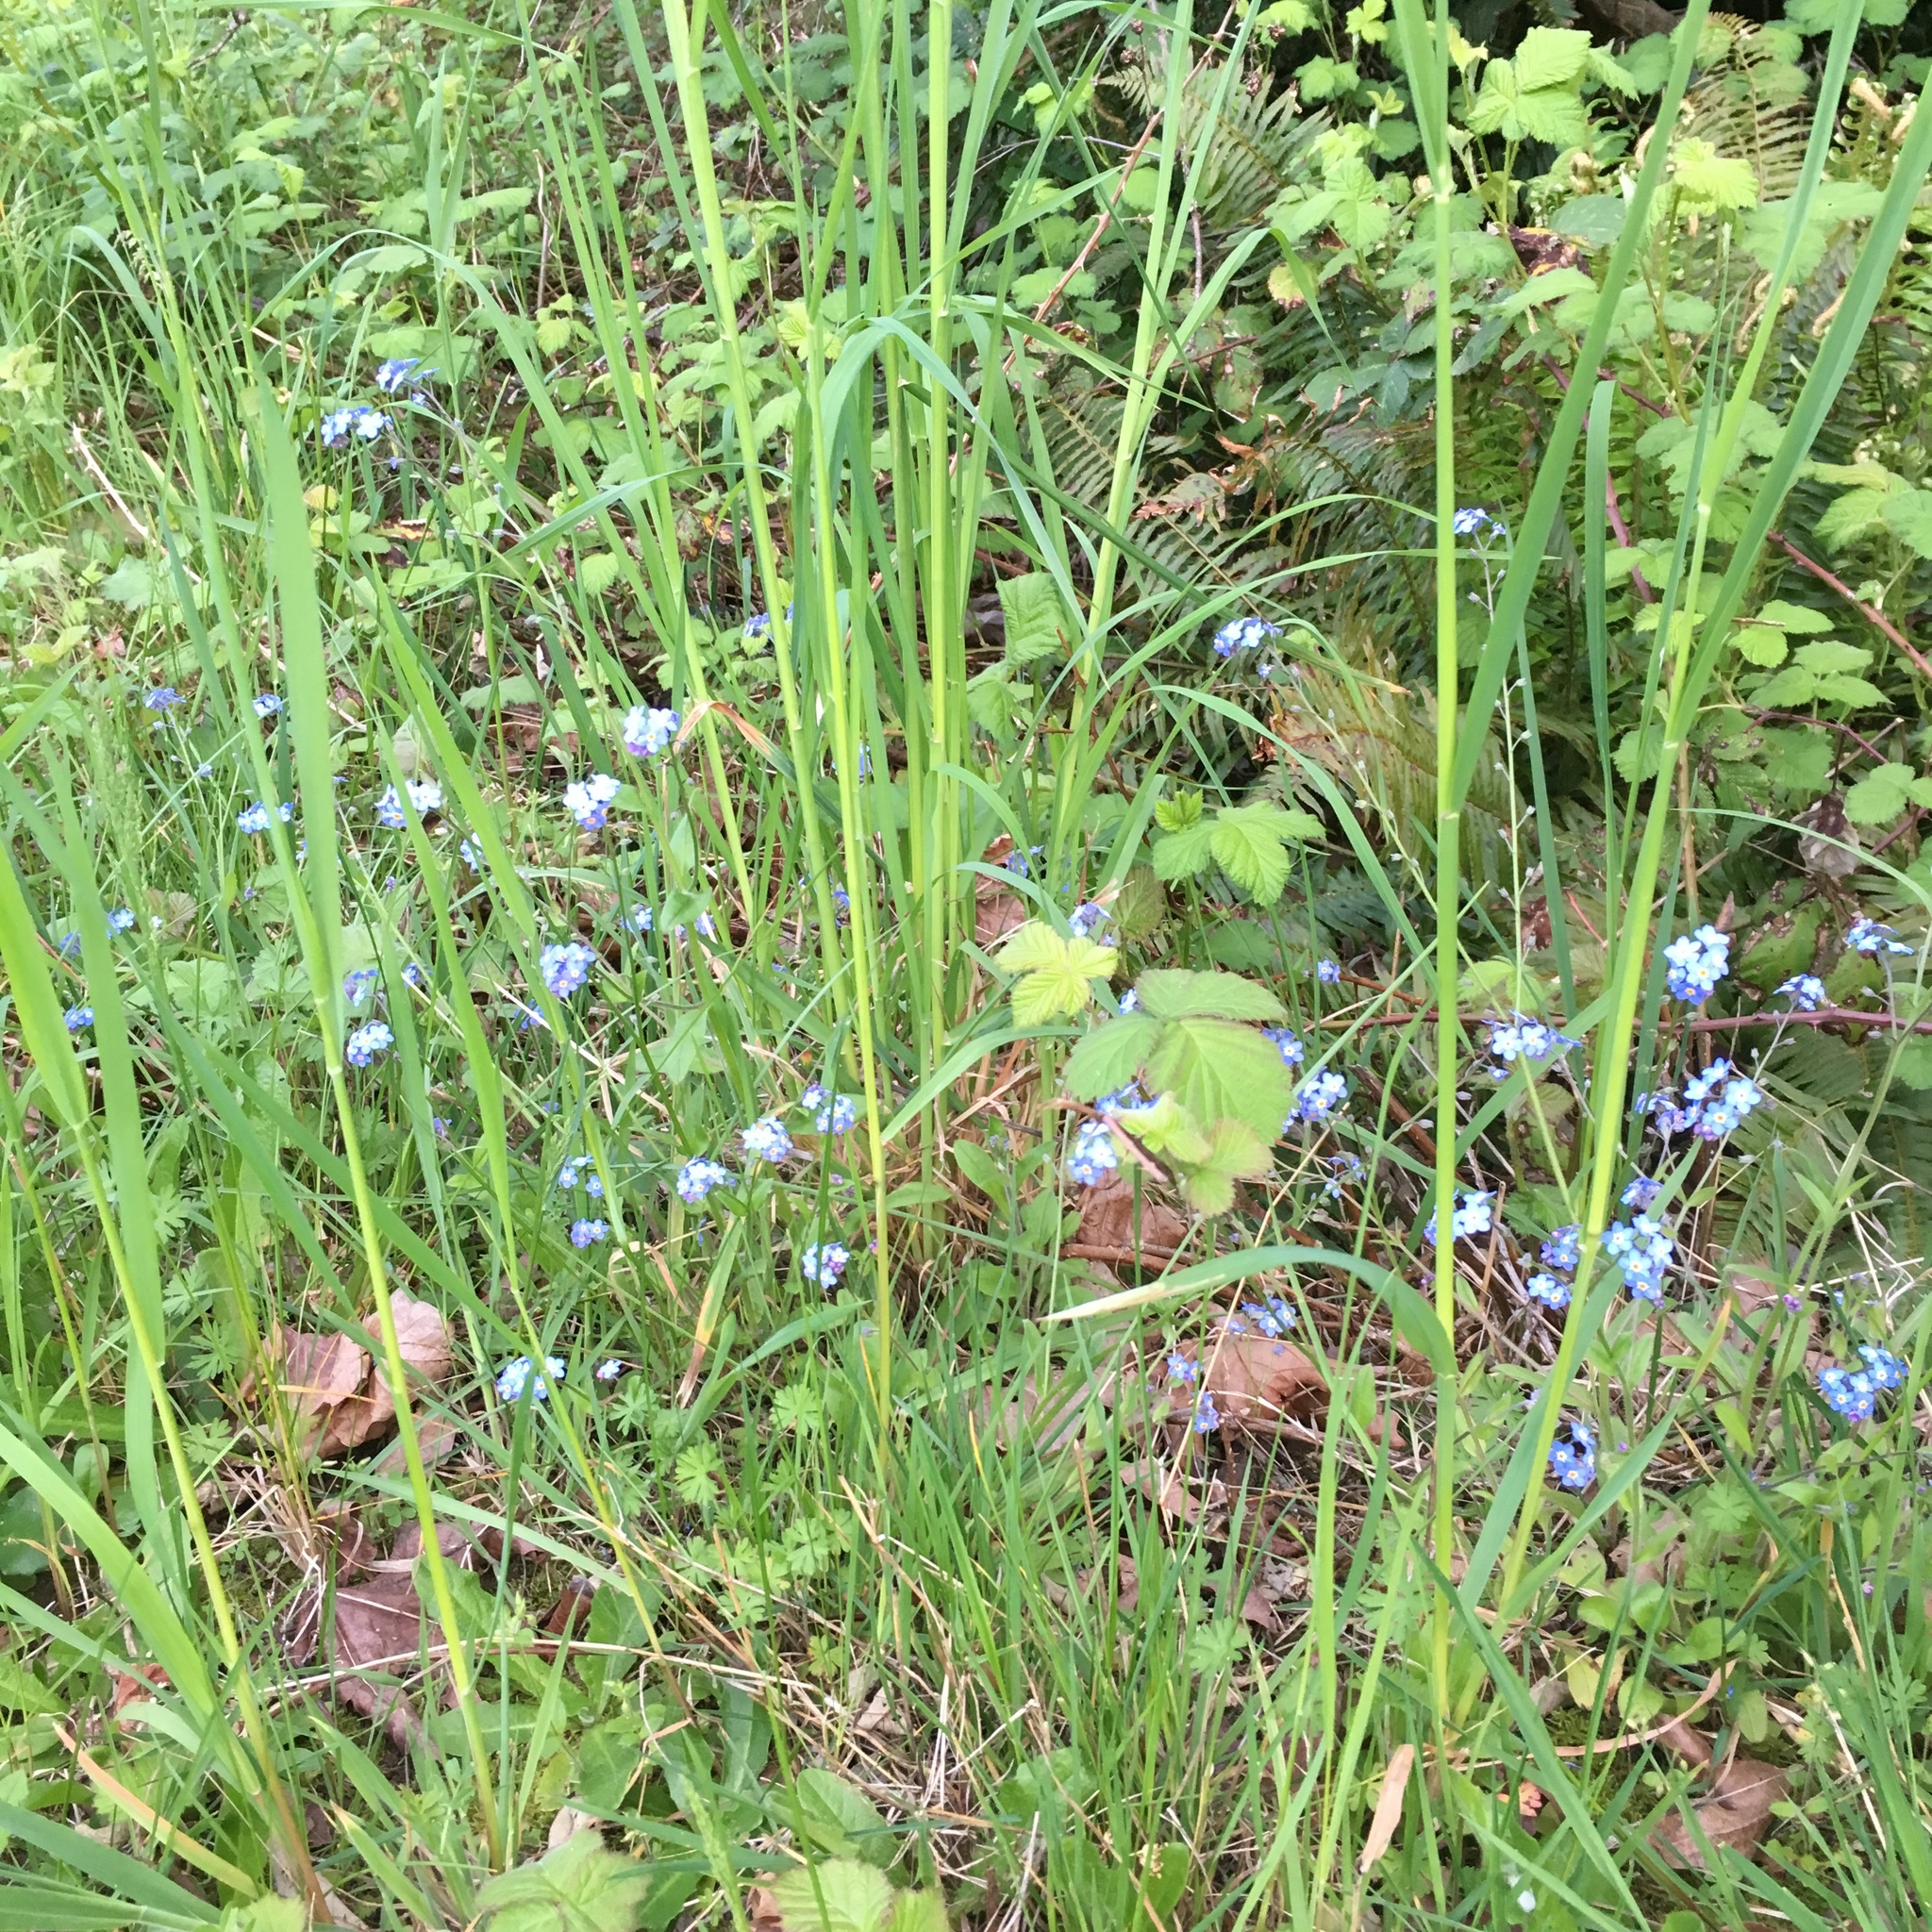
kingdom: Plantae
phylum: Tracheophyta
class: Magnoliopsida
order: Boraginales
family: Boraginaceae
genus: Myosotis
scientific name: Myosotis sylvatica
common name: Wood forget-me-not
